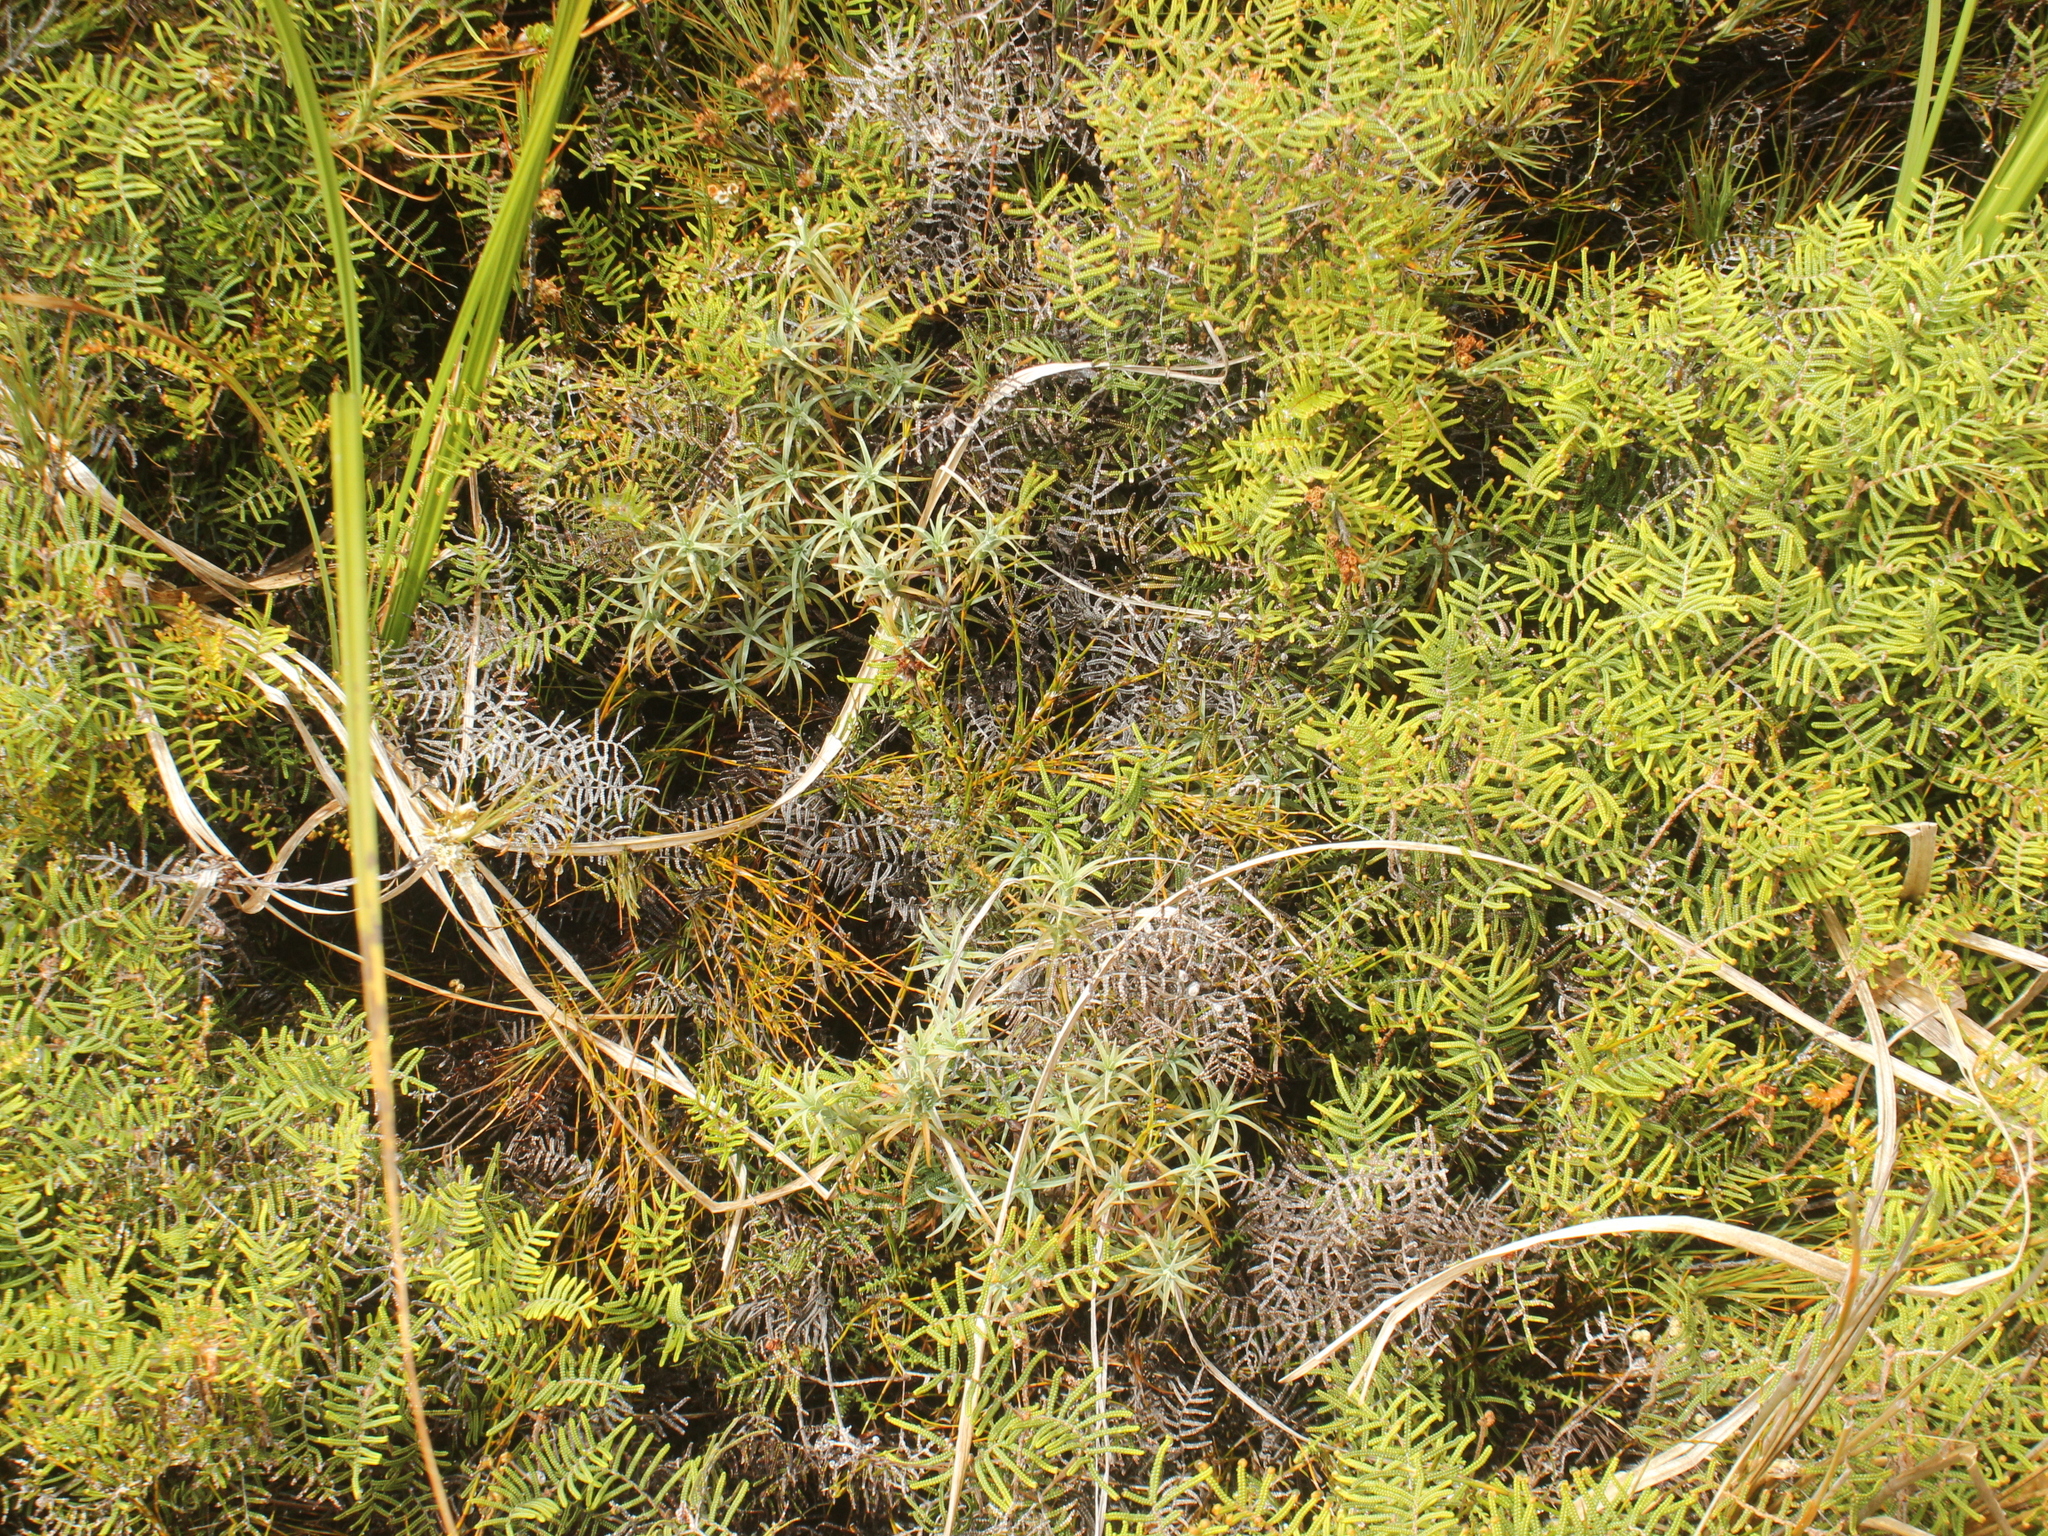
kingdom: Plantae
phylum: Tracheophyta
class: Magnoliopsida
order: Ericales
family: Ericaceae
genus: Dracophyllum
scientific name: Dracophyllum recurvum
